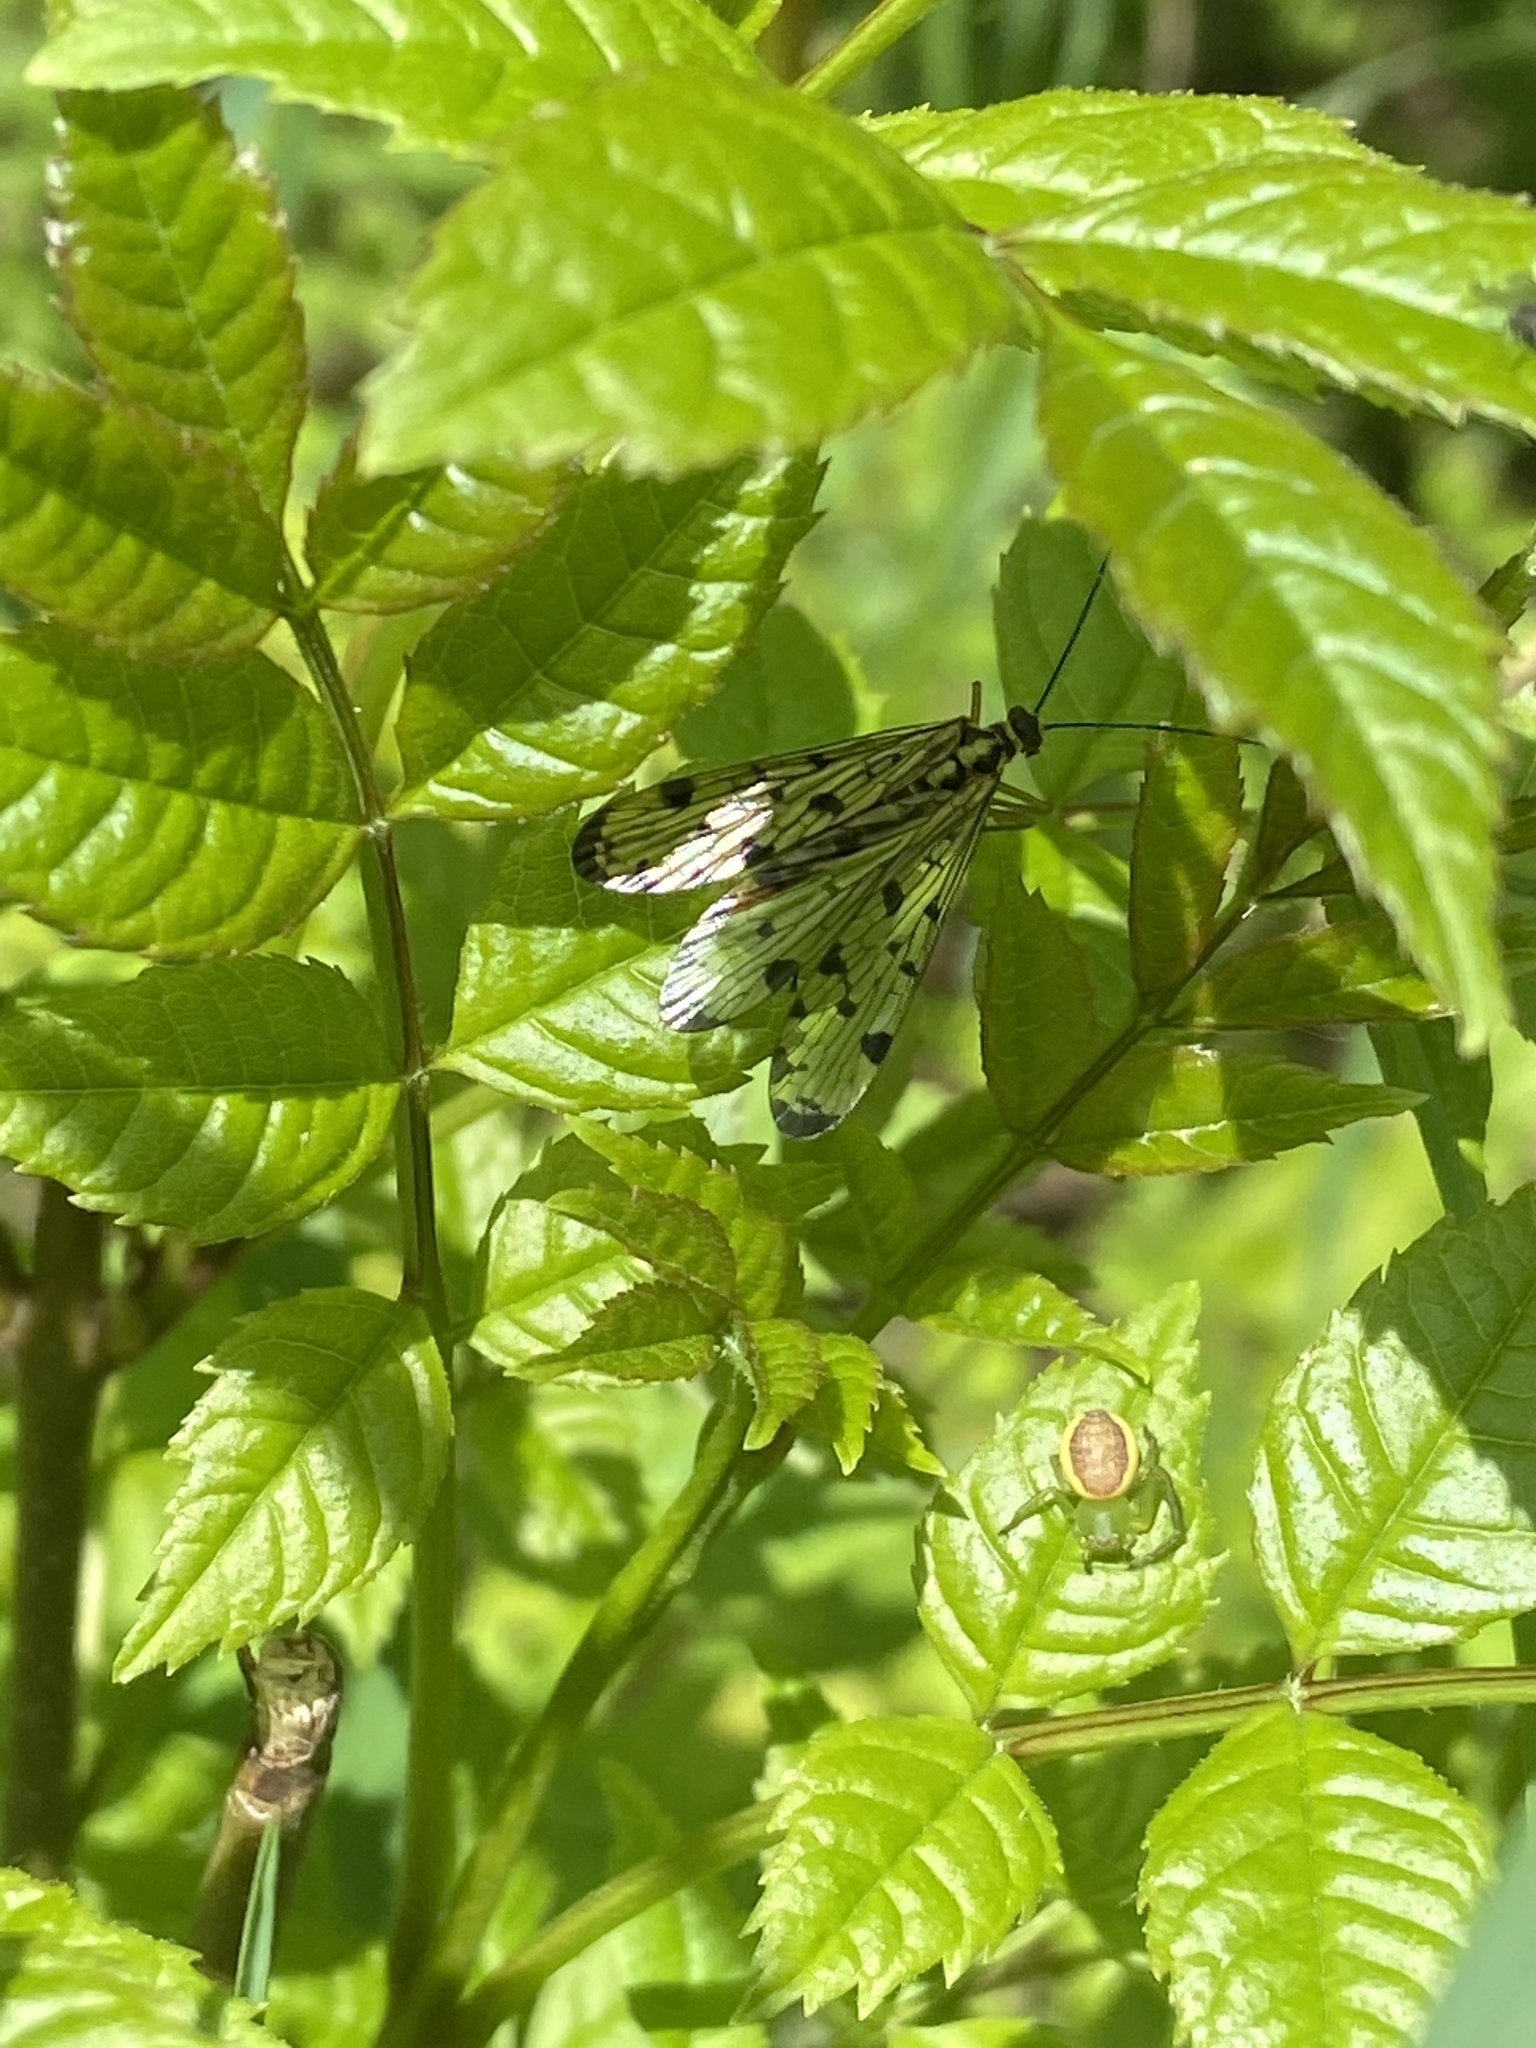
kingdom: Animalia
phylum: Arthropoda
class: Insecta
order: Mecoptera
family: Panorpidae
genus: Panorpa
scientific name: Panorpa germanica
